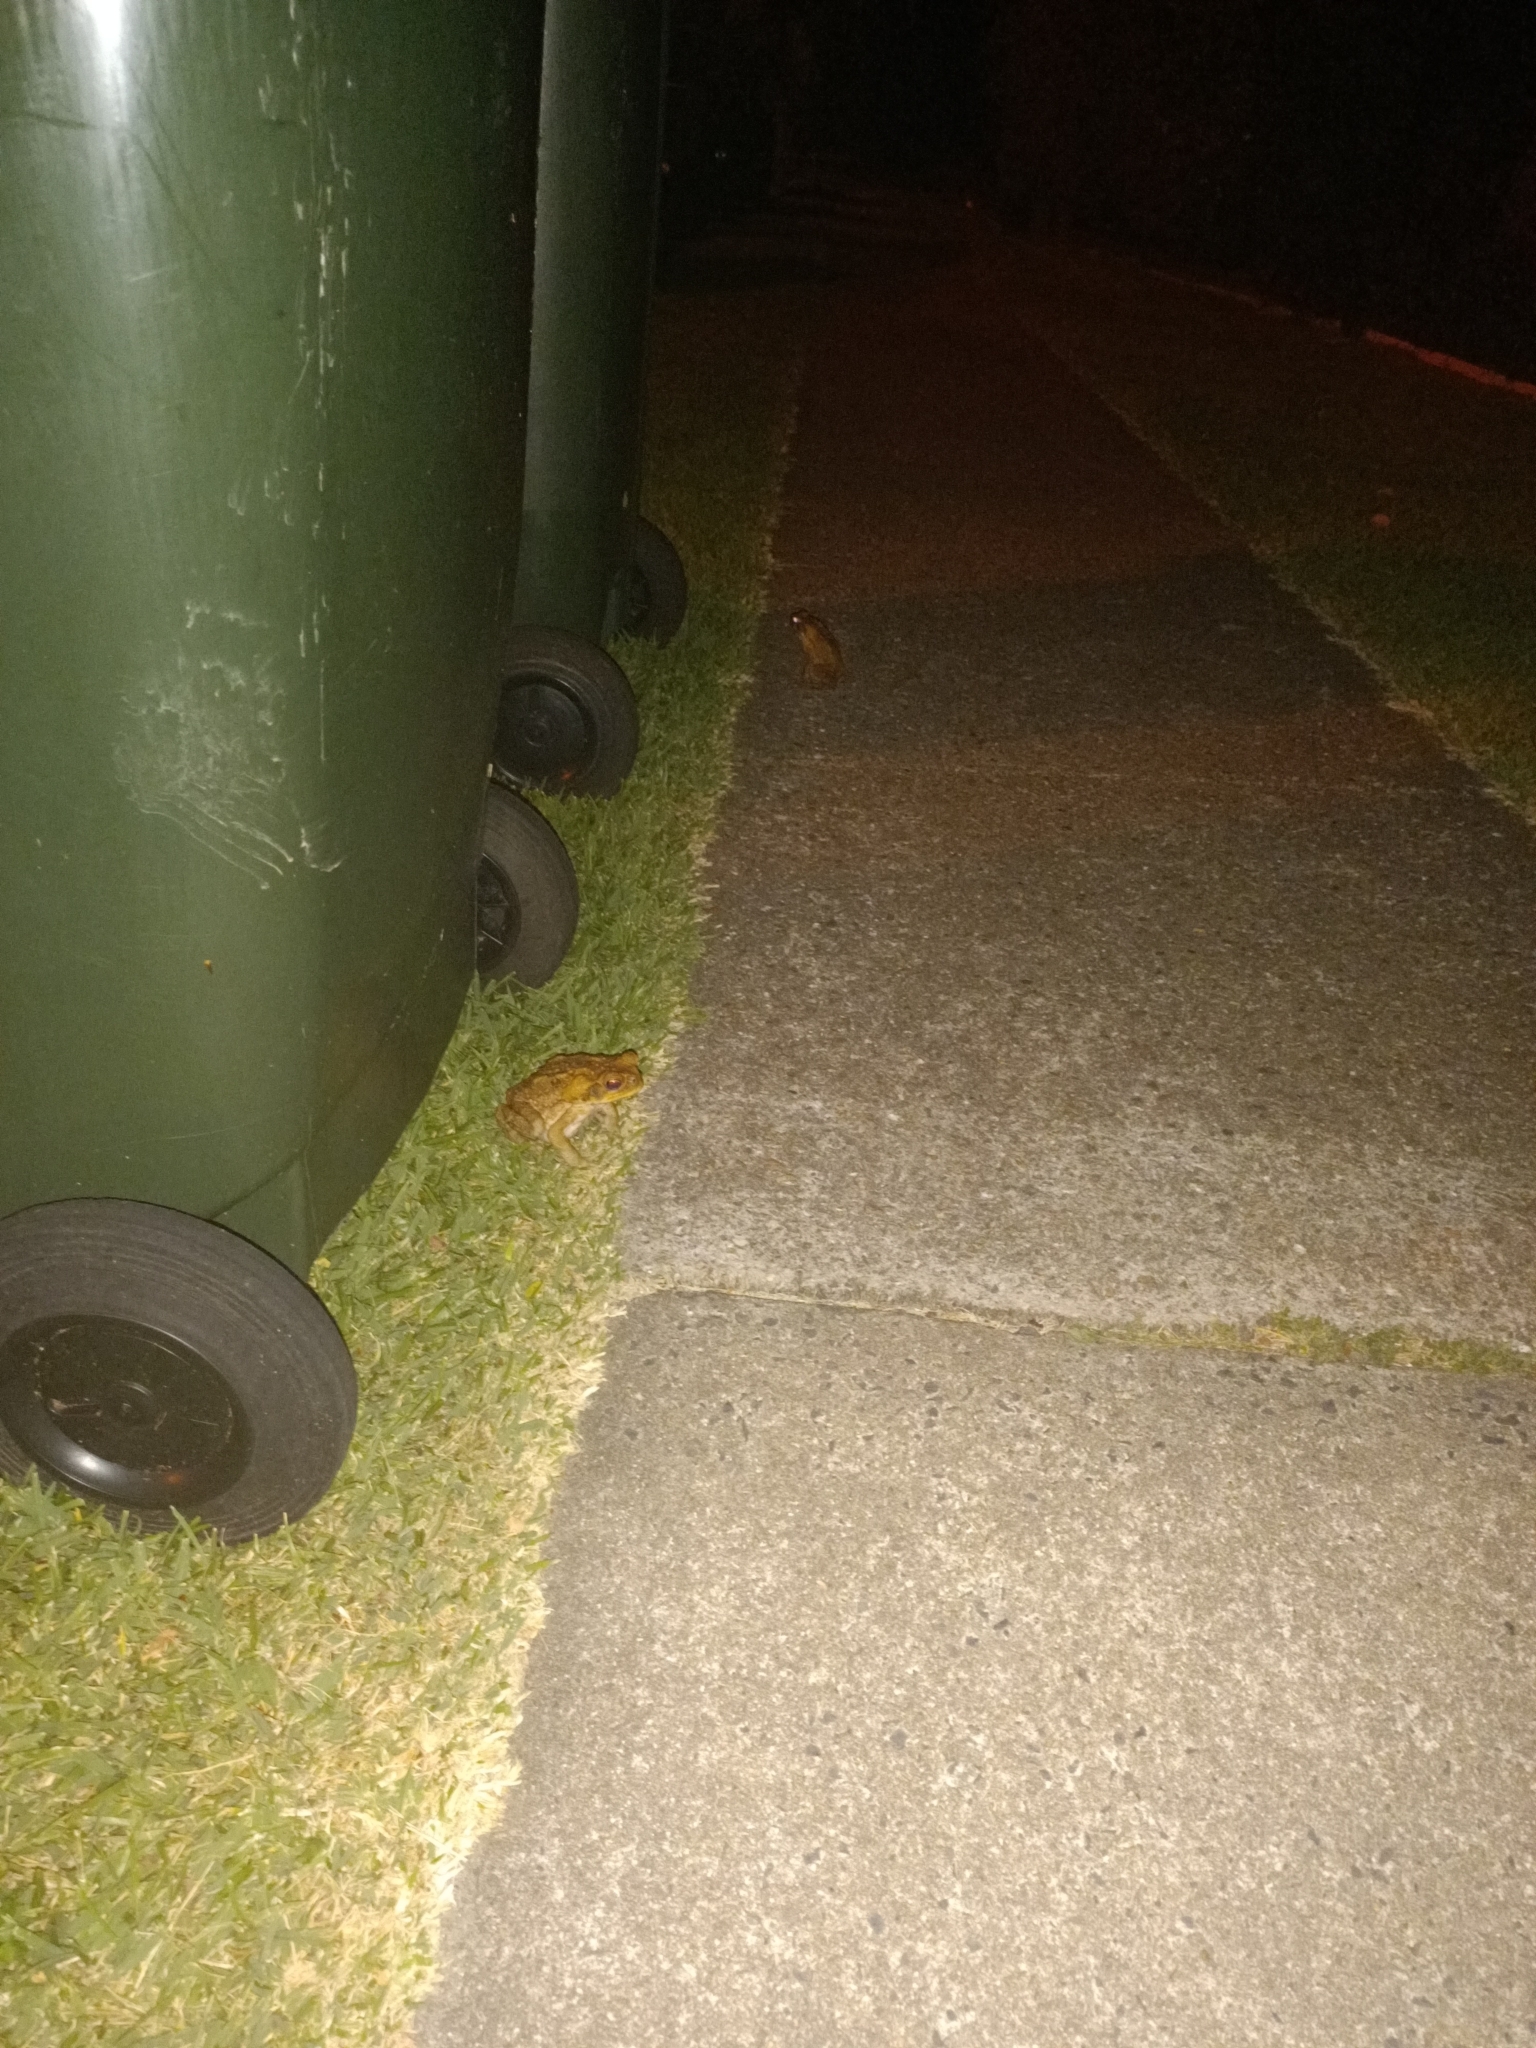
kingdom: Animalia
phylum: Chordata
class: Amphibia
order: Anura
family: Bufonidae
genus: Rhinella
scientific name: Rhinella marina
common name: Cane toad
